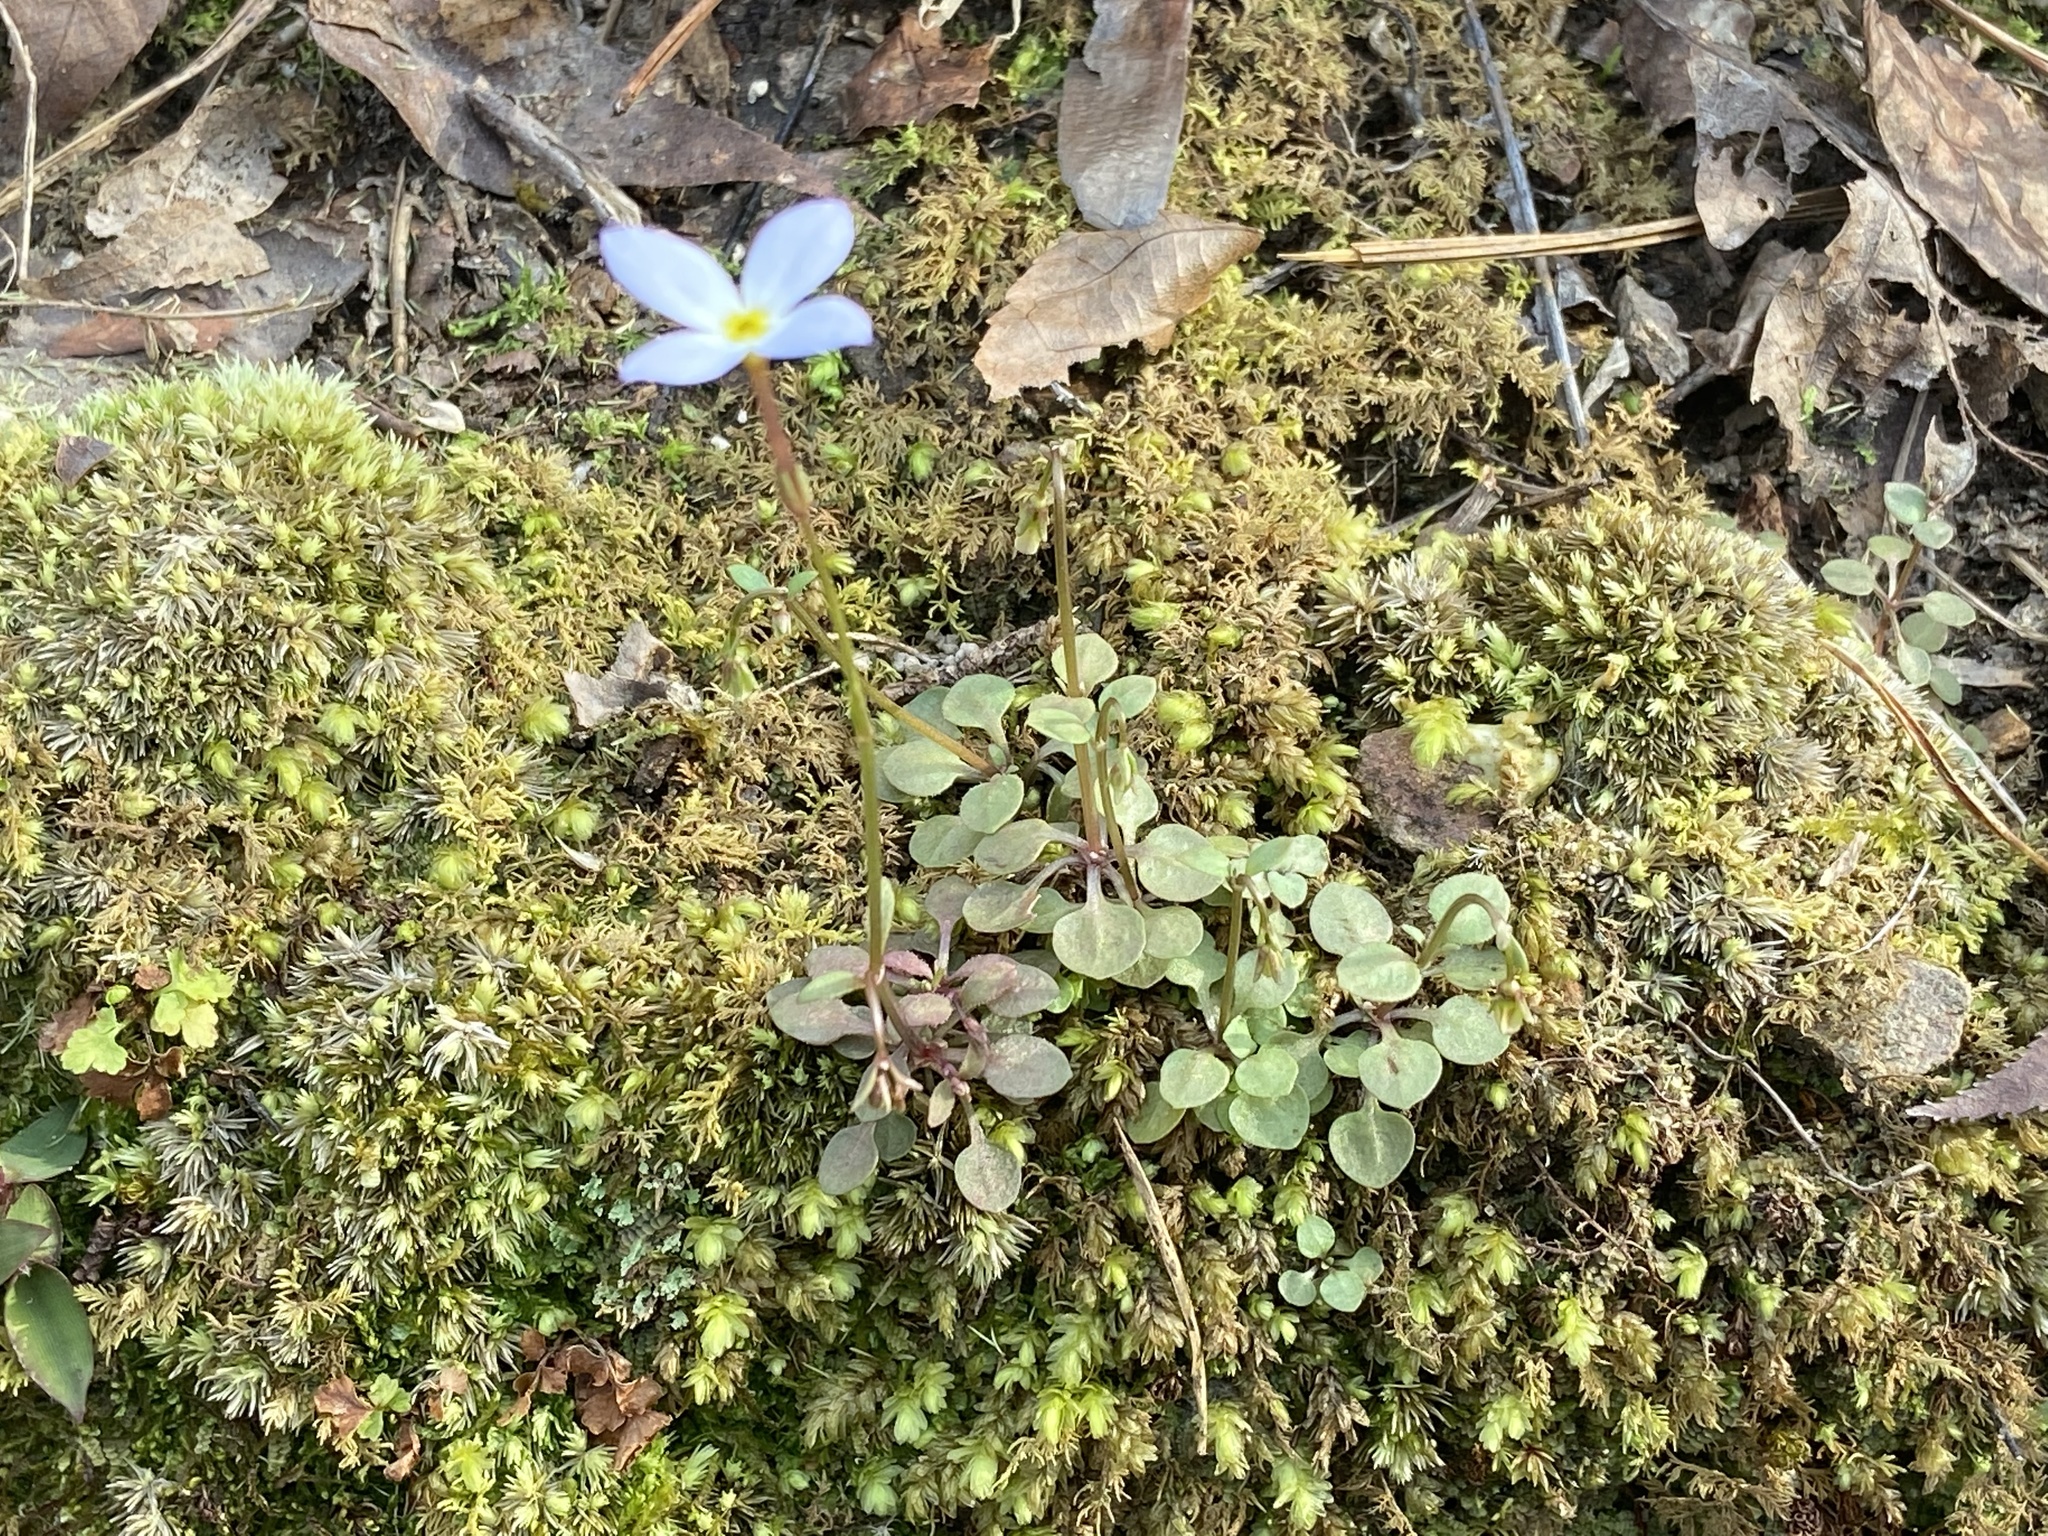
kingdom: Plantae
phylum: Tracheophyta
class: Magnoliopsida
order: Gentianales
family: Rubiaceae
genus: Houstonia
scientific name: Houstonia caerulea
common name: Bluets
